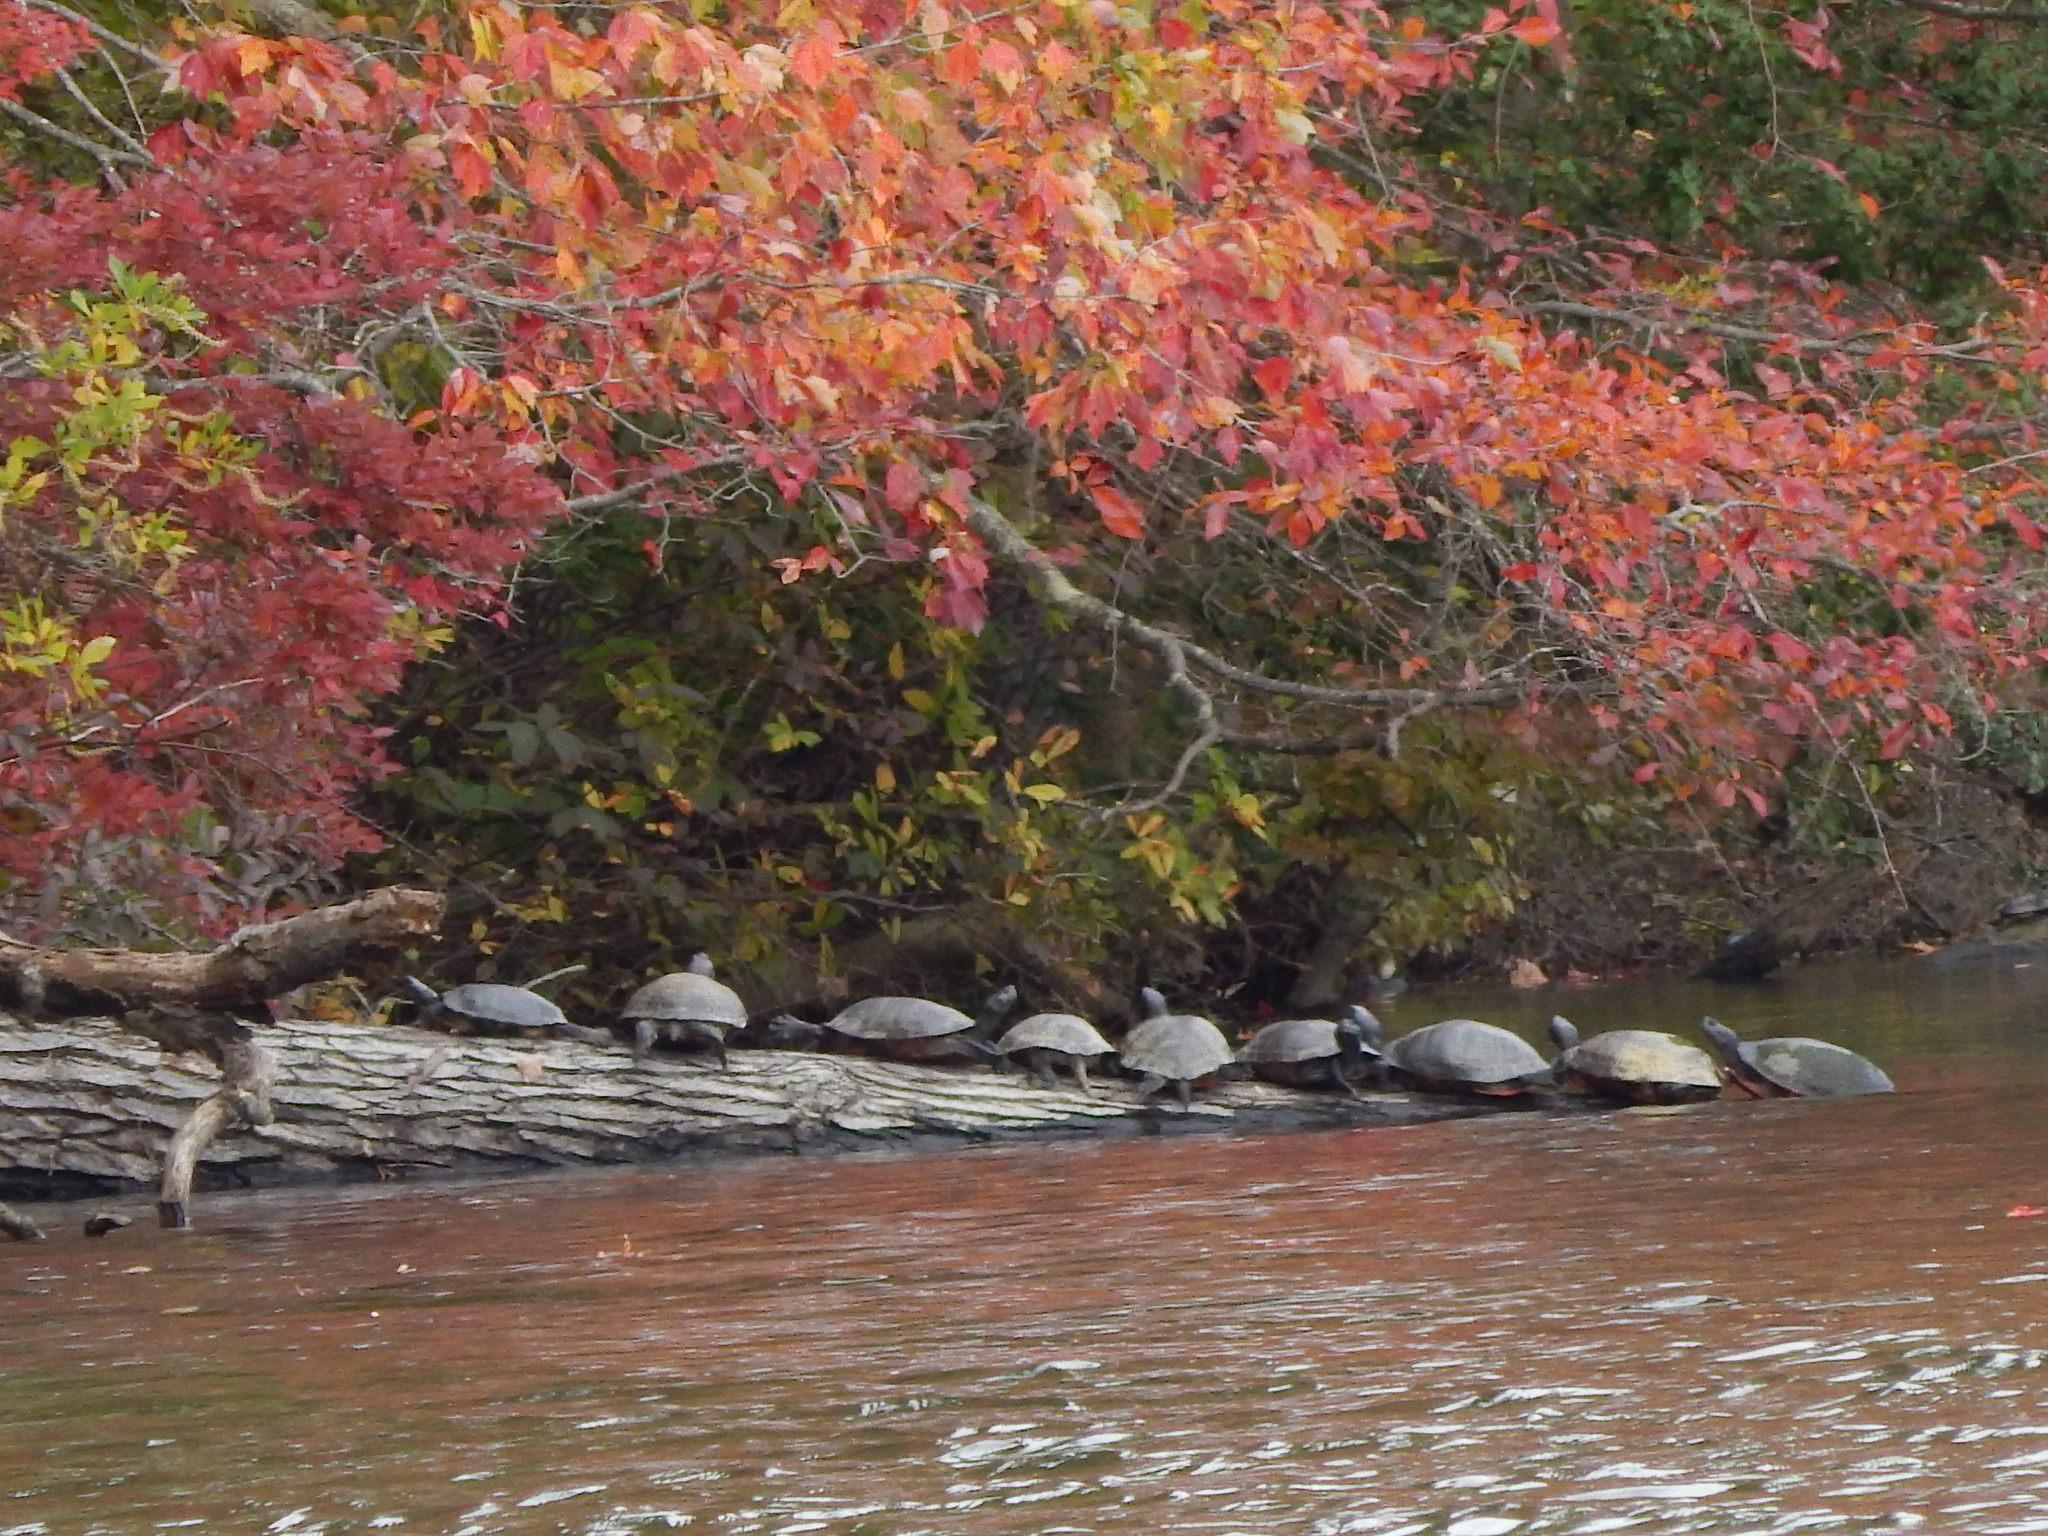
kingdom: Animalia
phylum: Chordata
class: Testudines
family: Emydidae
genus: Pseudemys
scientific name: Pseudemys rubriventris
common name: American red-bellied turtle
